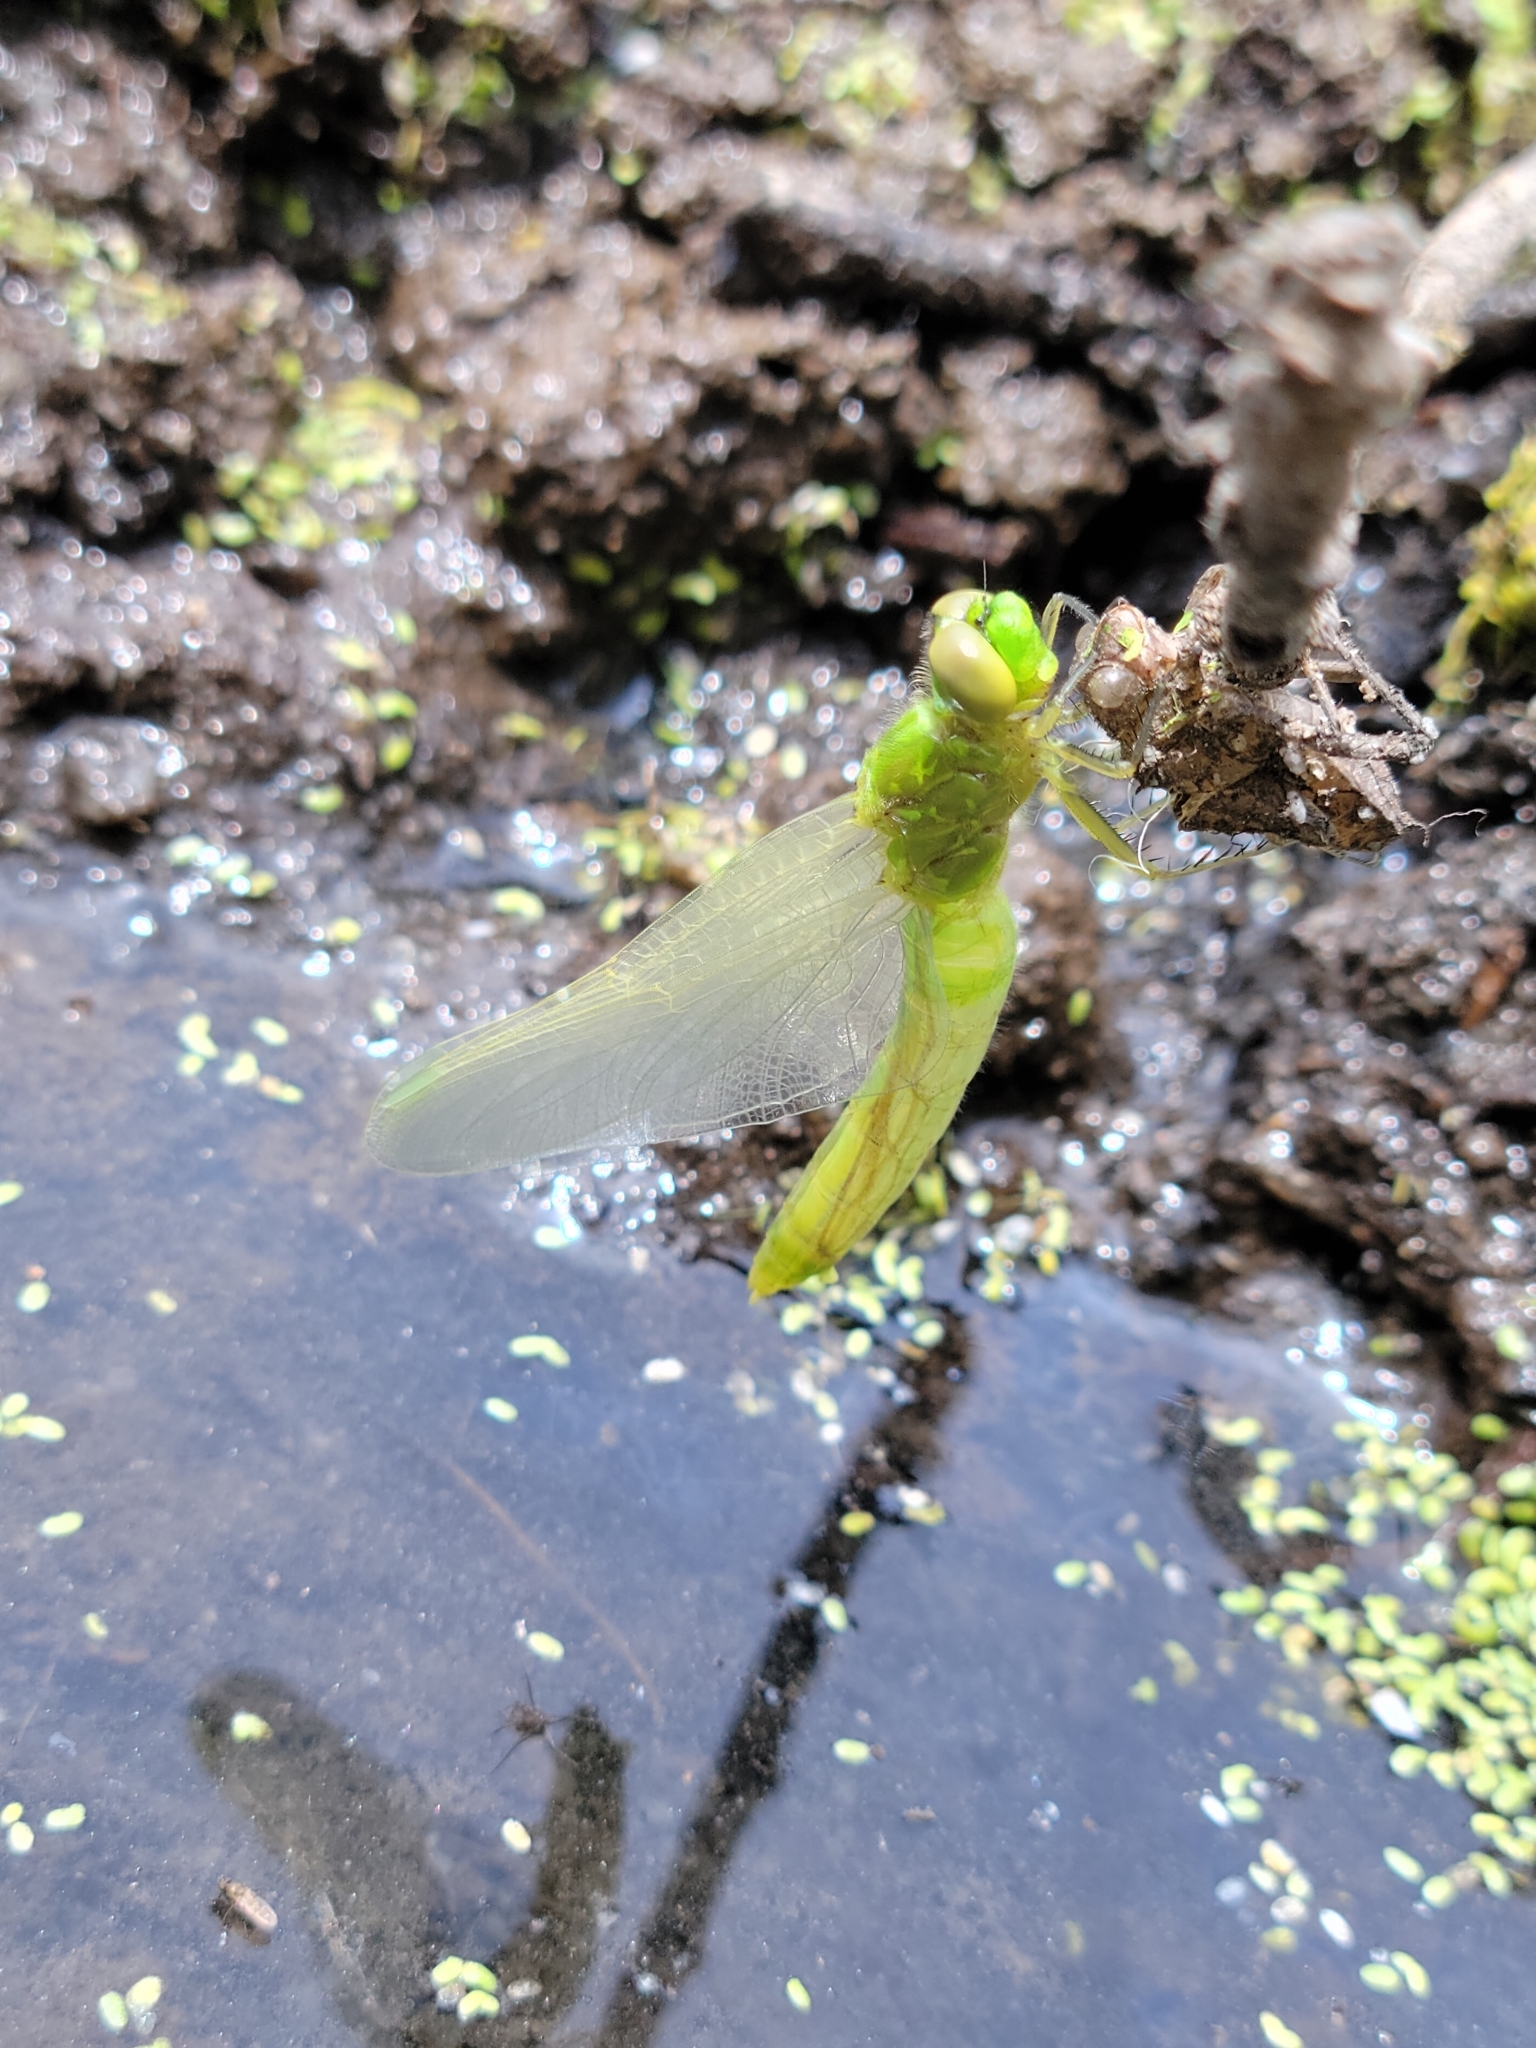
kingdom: Animalia
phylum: Arthropoda
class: Insecta
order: Odonata
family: Libellulidae
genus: Erythemis
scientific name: Erythemis collocata
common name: Western pondhawk
